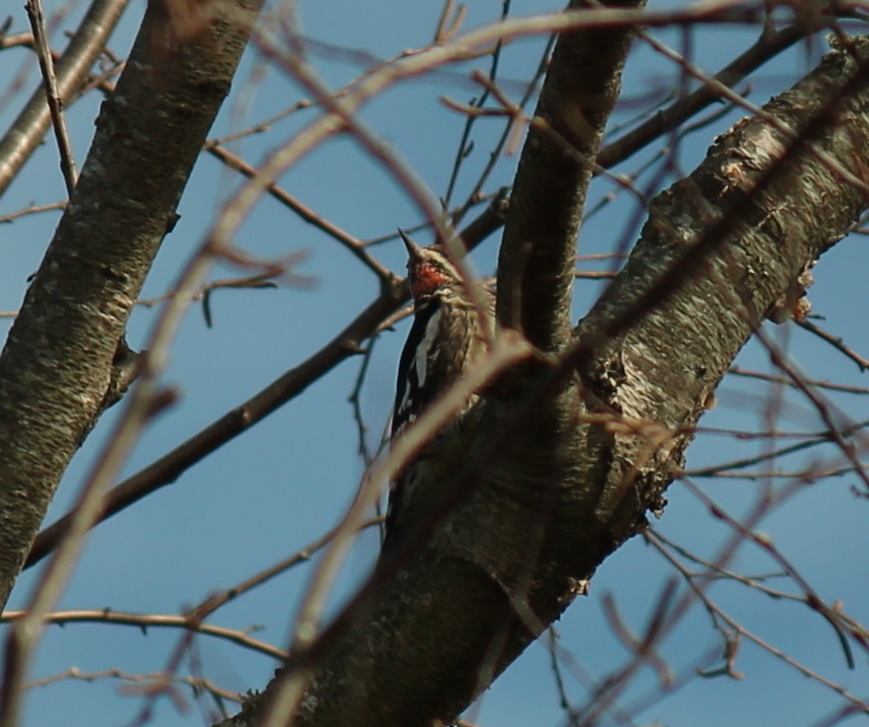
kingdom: Animalia
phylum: Chordata
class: Aves
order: Piciformes
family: Picidae
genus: Sphyrapicus
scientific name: Sphyrapicus varius
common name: Yellow-bellied sapsucker
